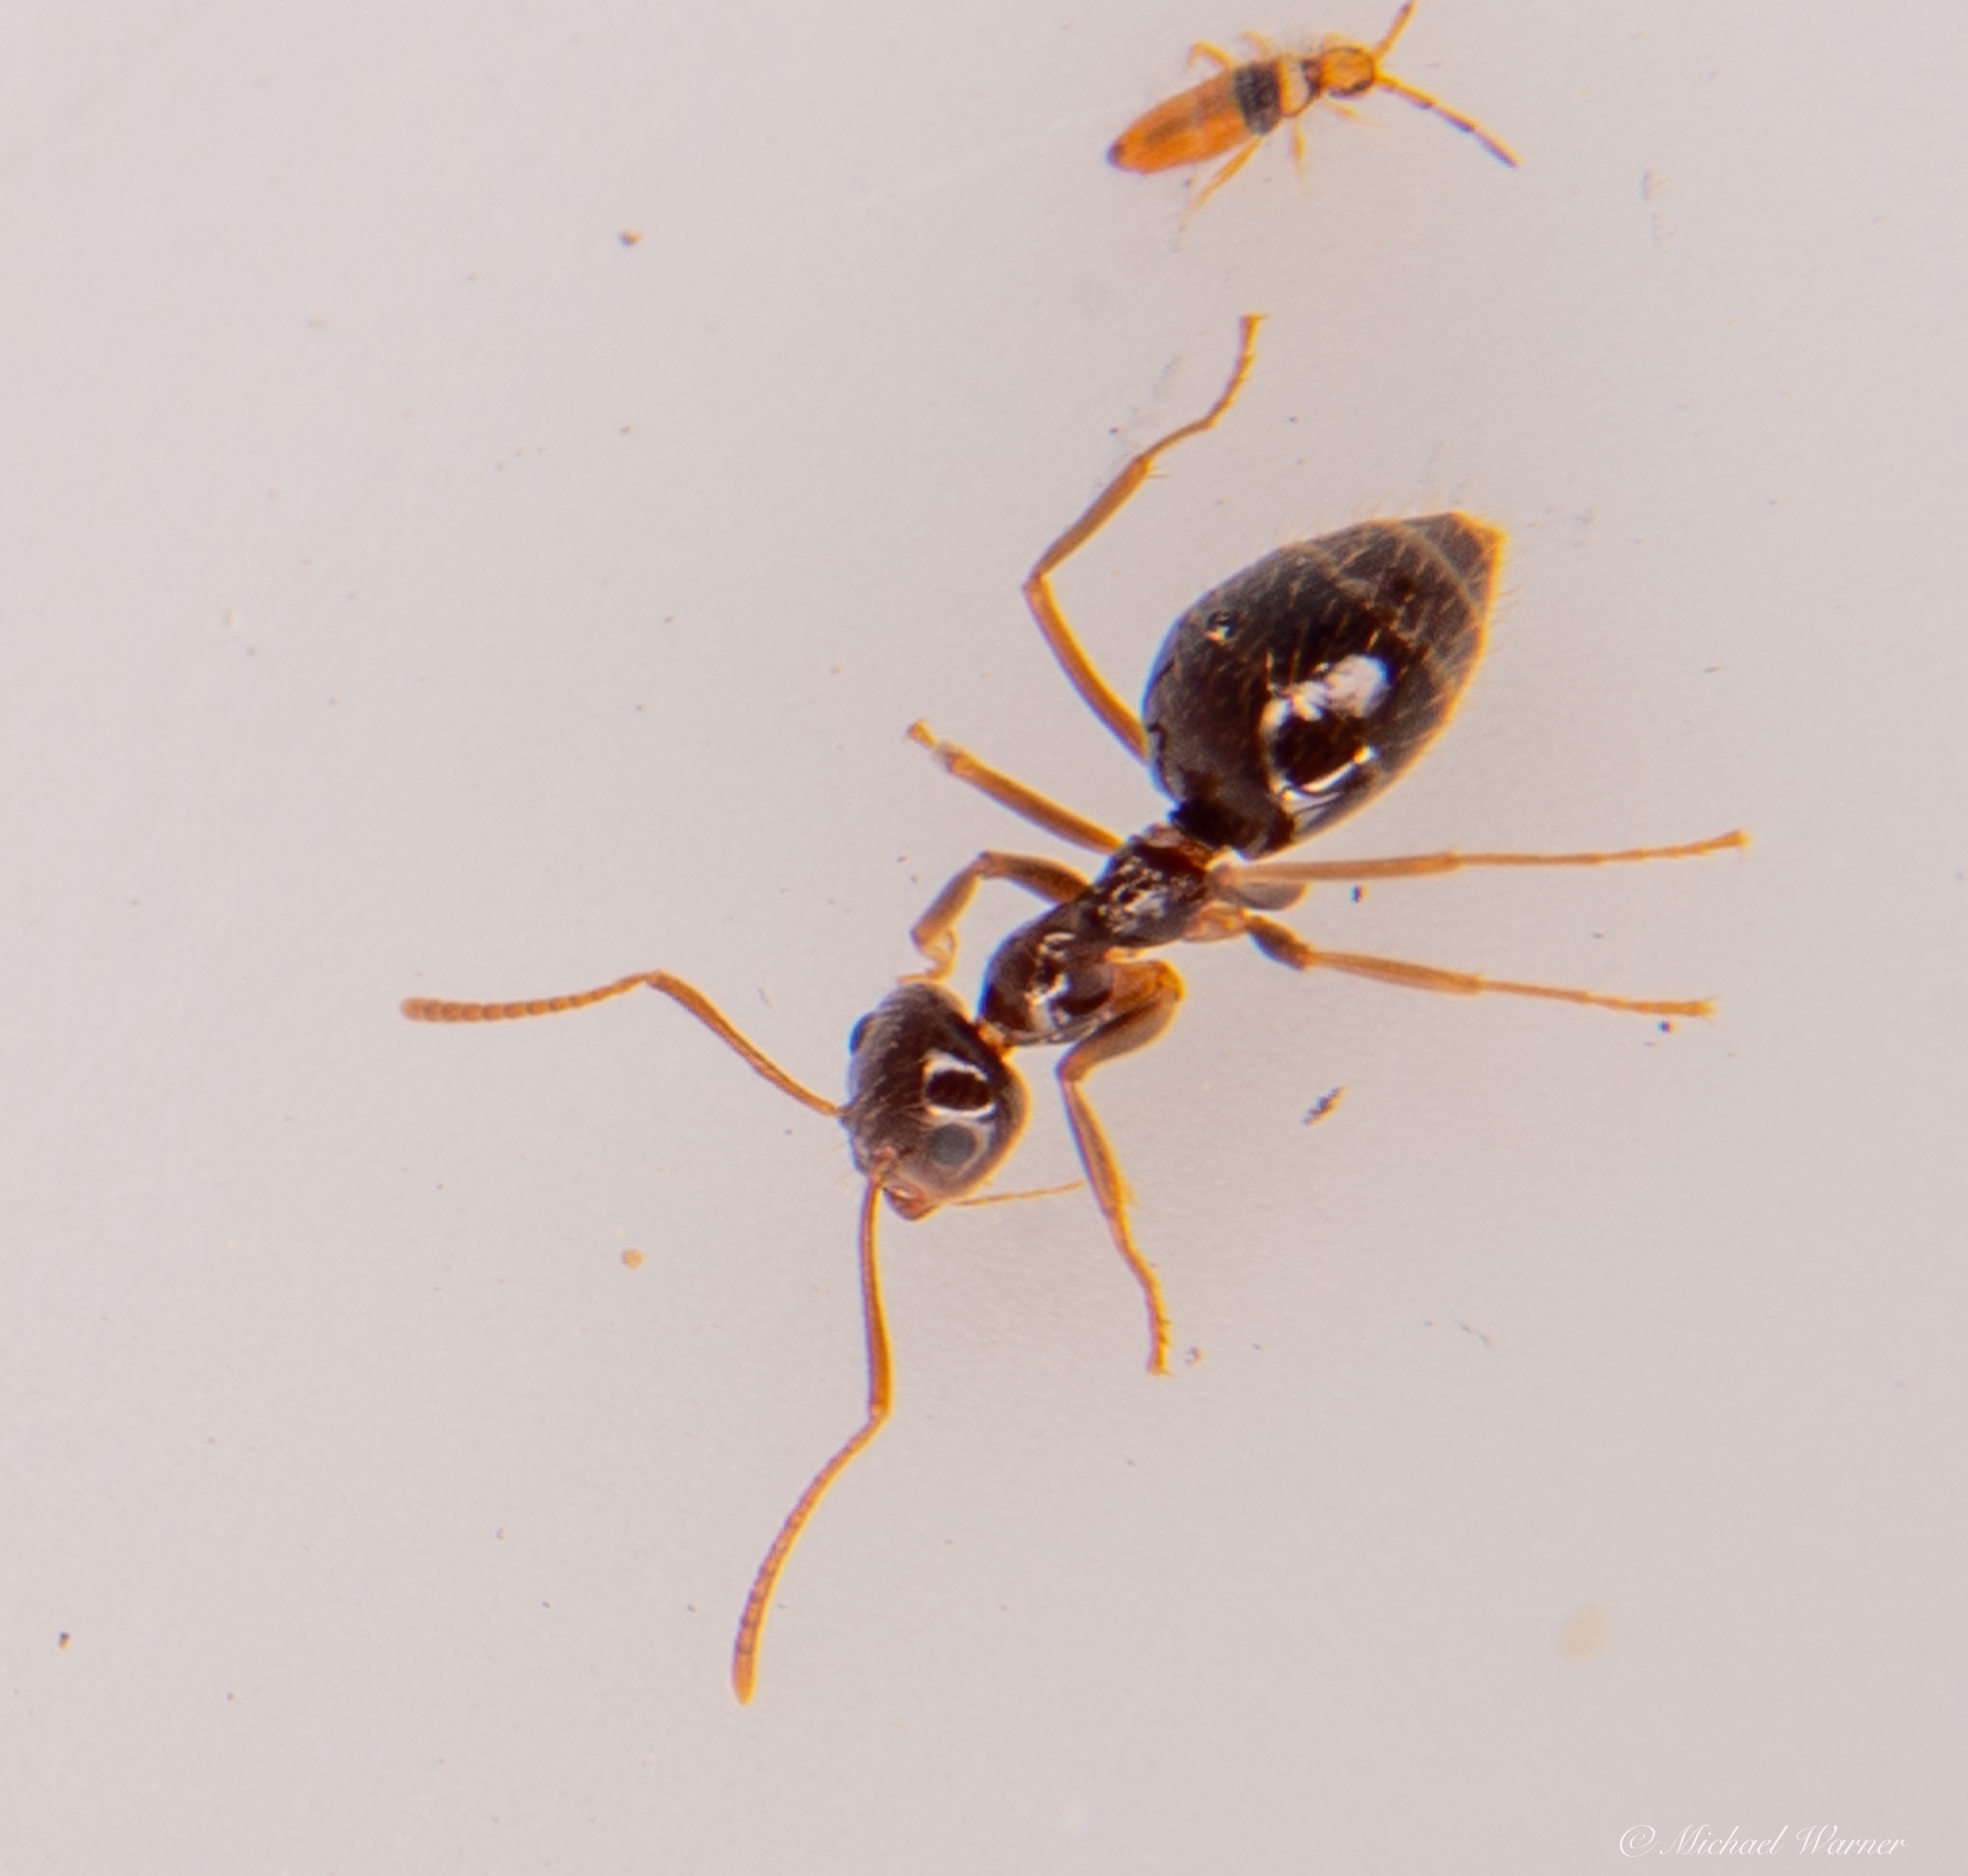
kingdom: Animalia
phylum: Arthropoda
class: Insecta
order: Hymenoptera
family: Formicidae
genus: Prenolepis
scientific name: Prenolepis imparis
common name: Small honey ant
